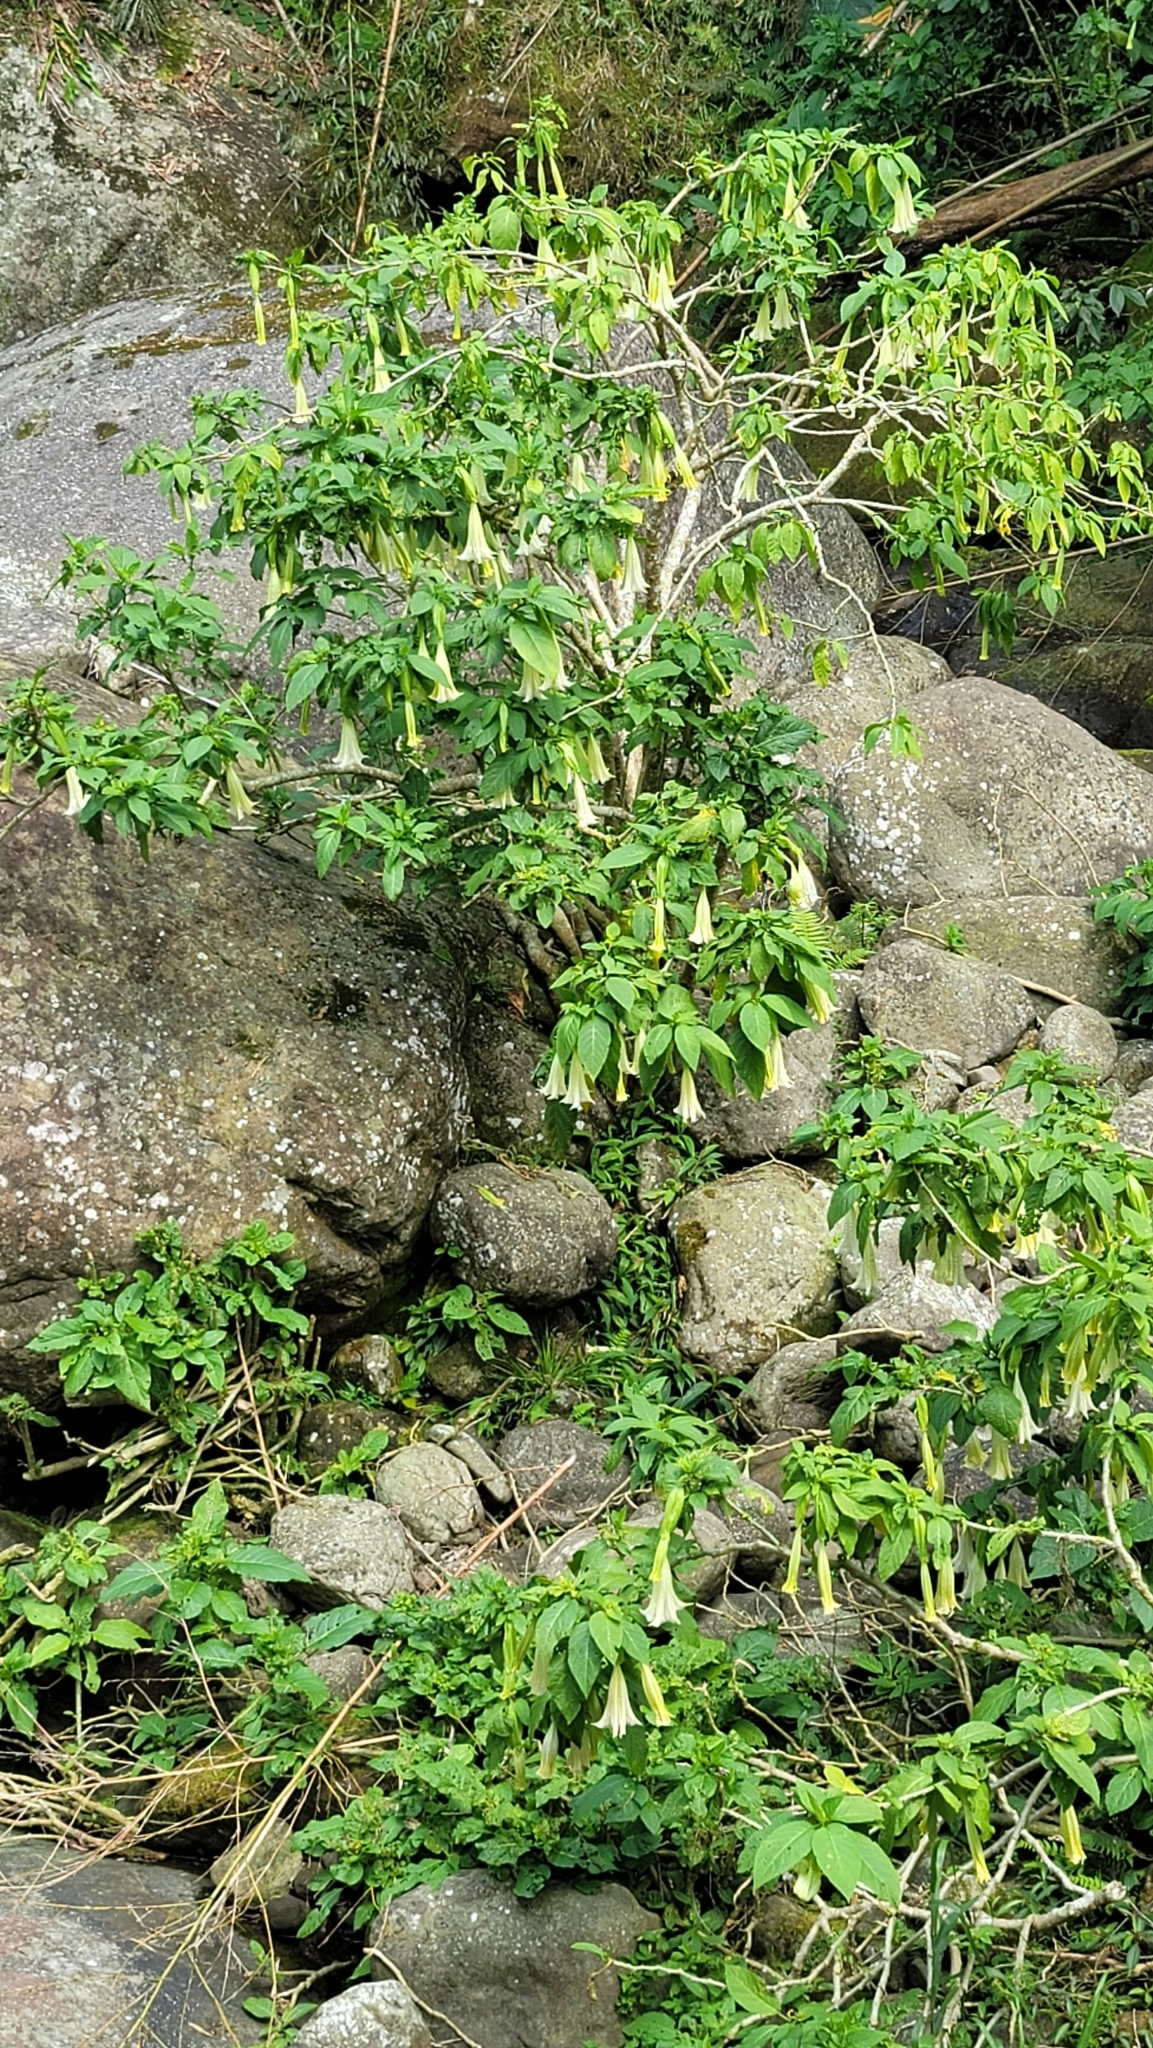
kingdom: Plantae
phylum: Tracheophyta
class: Magnoliopsida
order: Solanales
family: Solanaceae
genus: Brugmansia
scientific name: Brugmansia suaveolens
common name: Angel's tears
